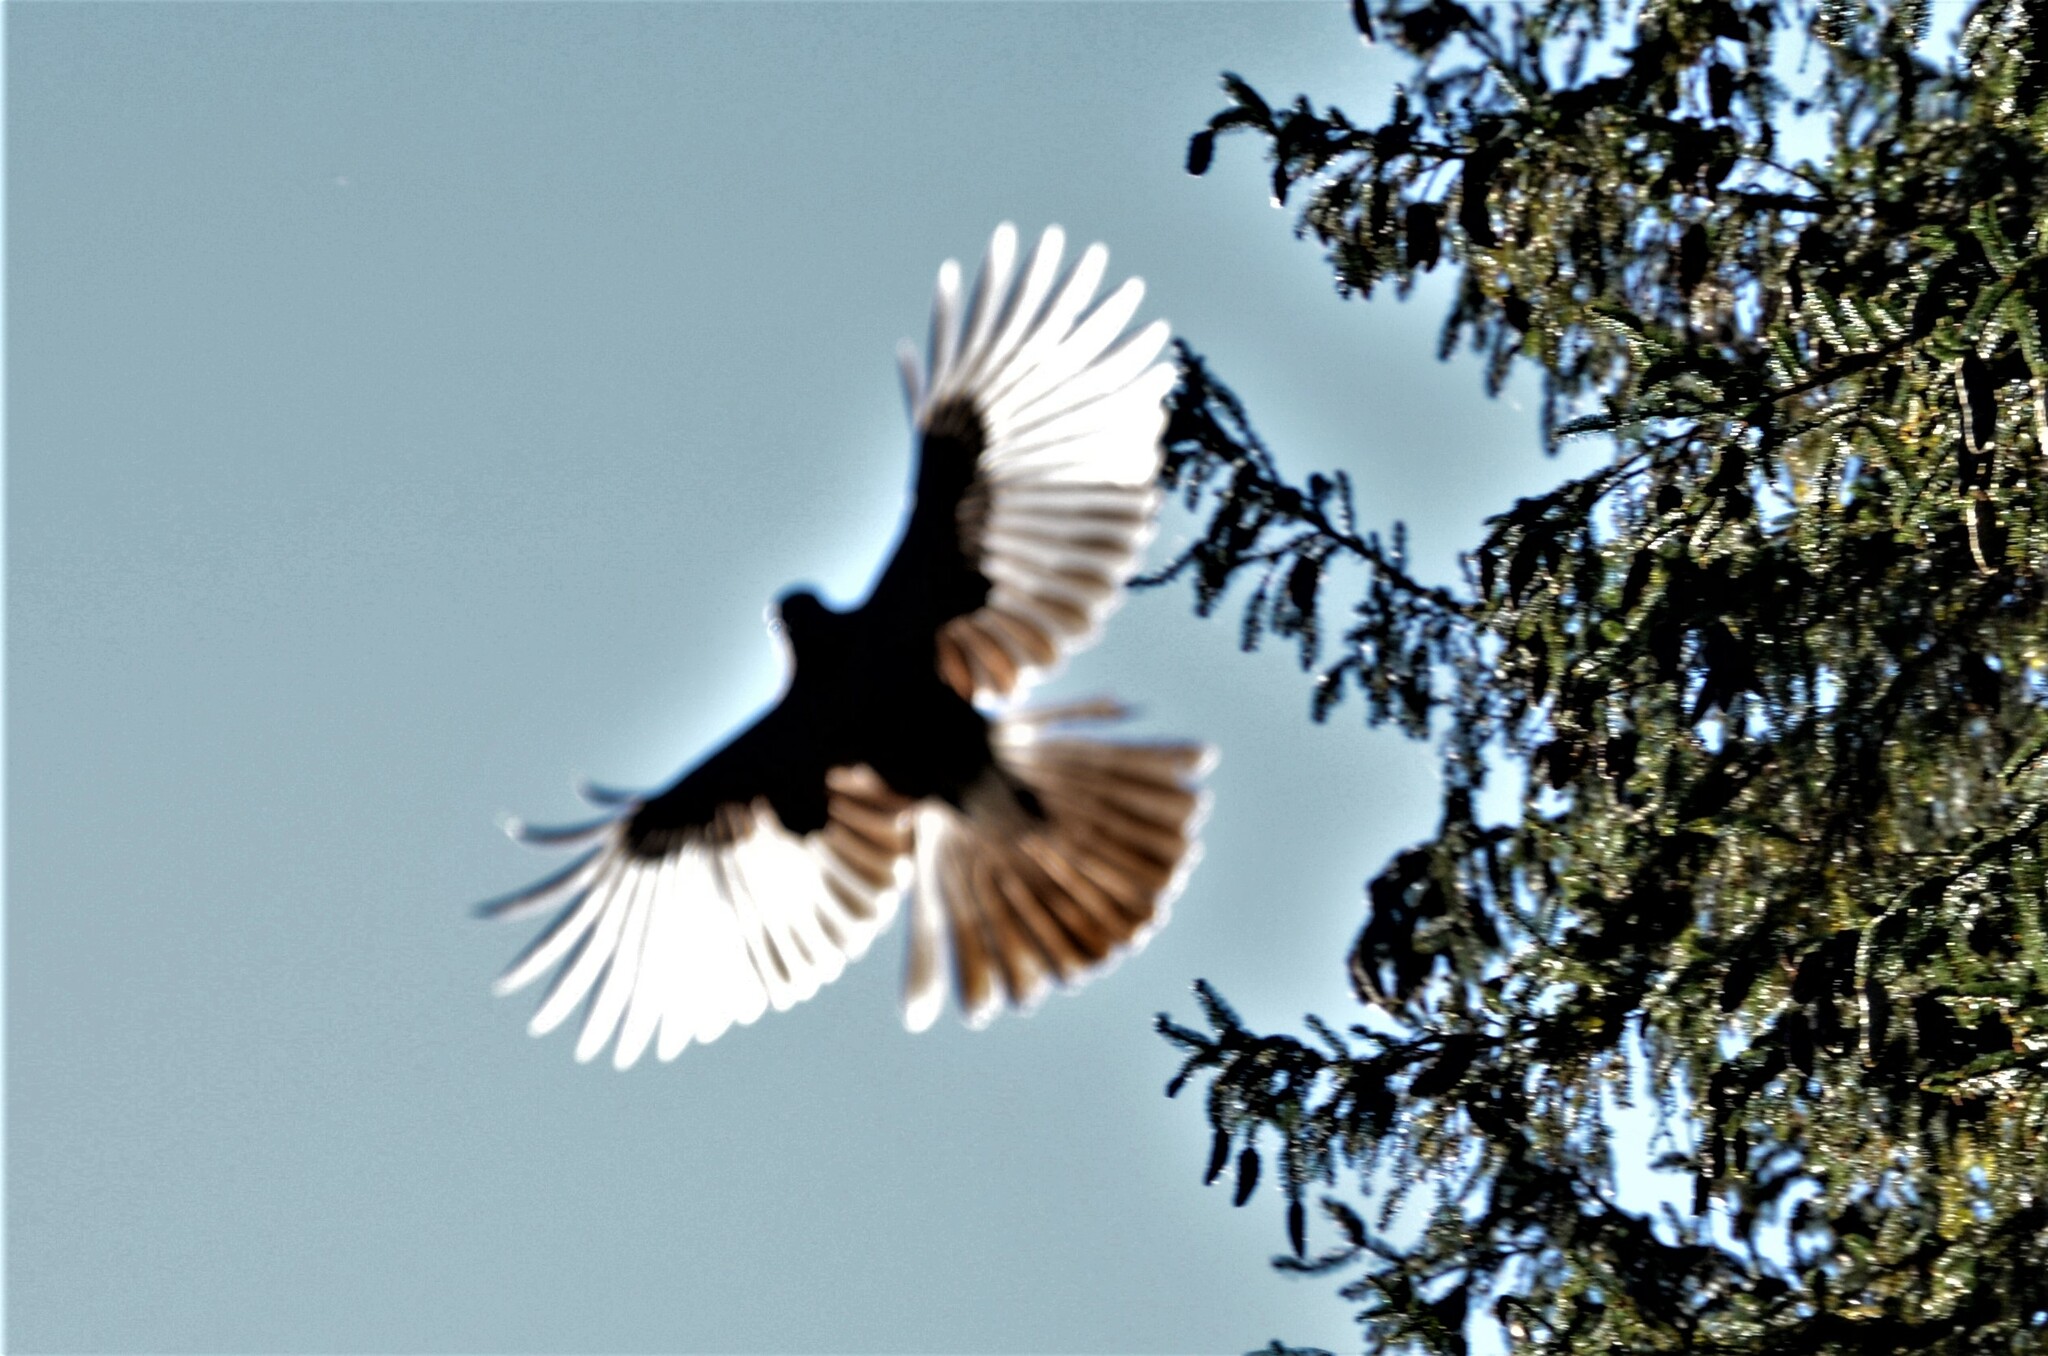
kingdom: Animalia
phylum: Chordata
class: Aves
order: Passeriformes
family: Corvidae
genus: Garrulus
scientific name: Garrulus glandarius
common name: Eurasian jay
